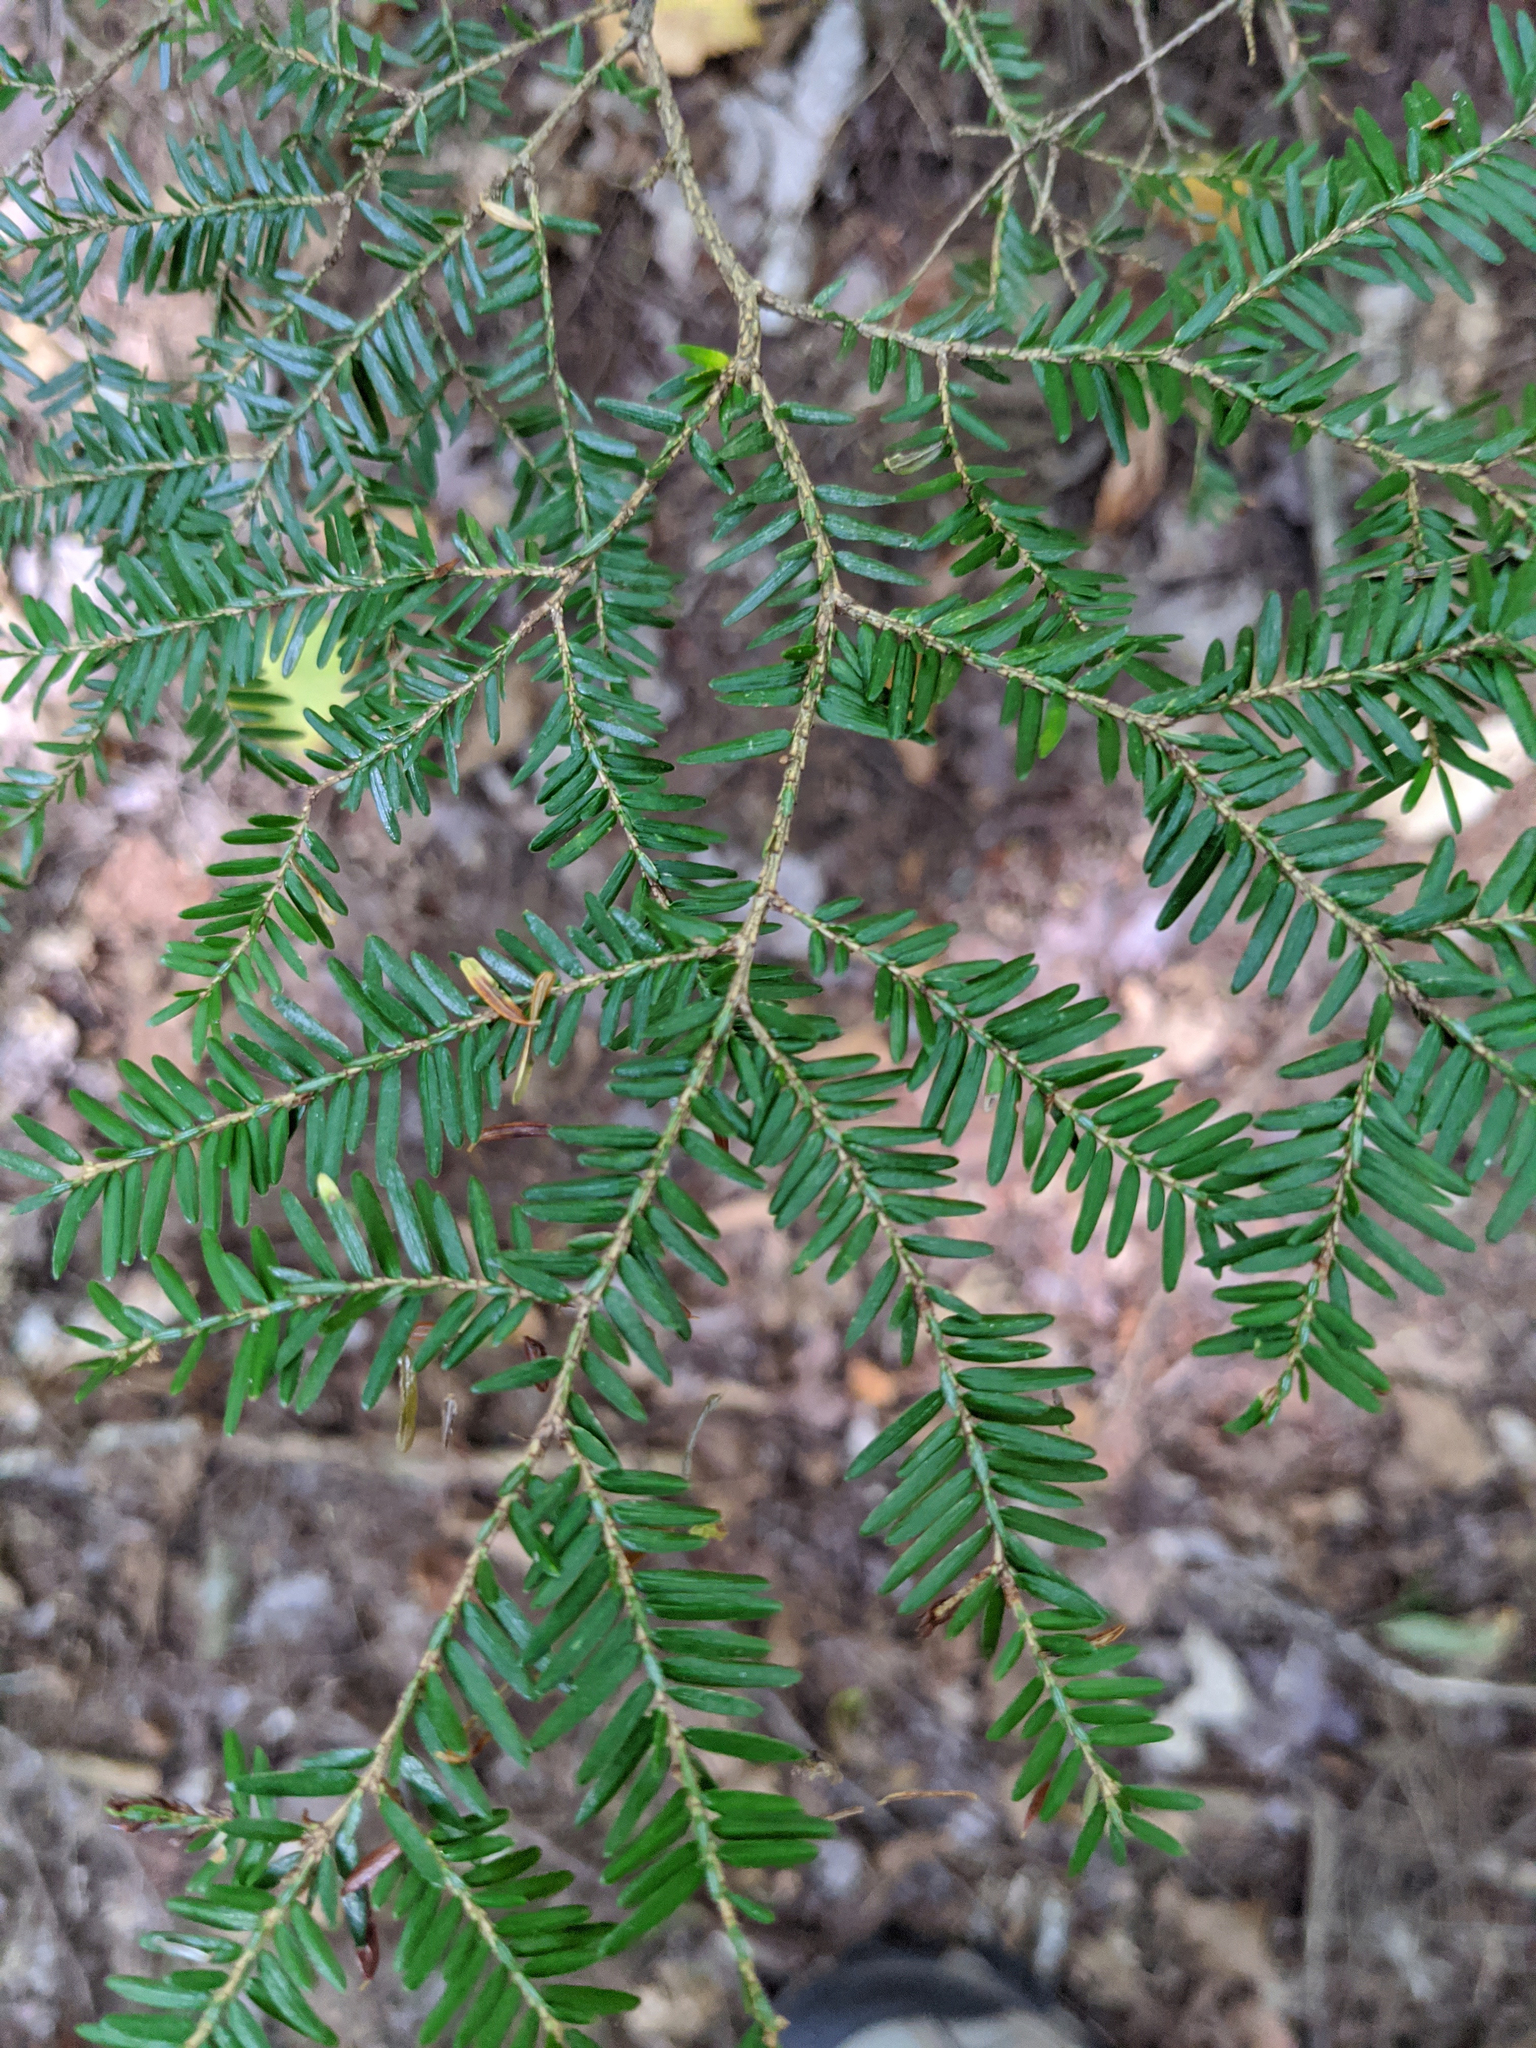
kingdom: Plantae
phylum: Tracheophyta
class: Pinopsida
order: Pinales
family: Pinaceae
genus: Tsuga
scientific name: Tsuga canadensis
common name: Eastern hemlock
